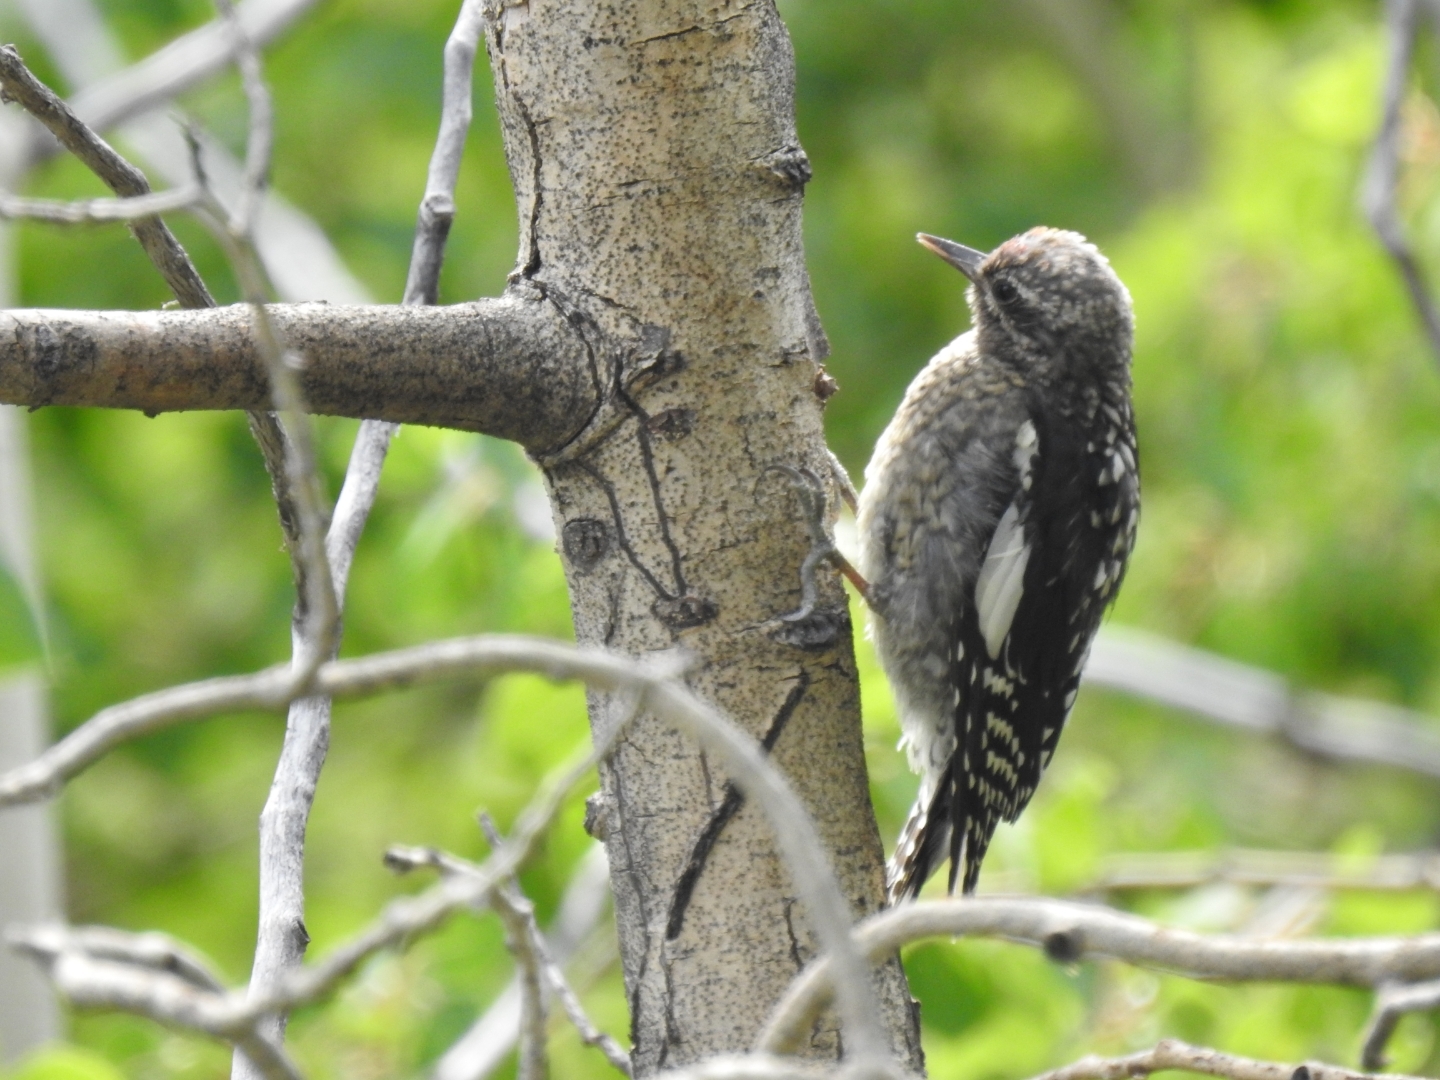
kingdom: Animalia
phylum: Chordata
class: Aves
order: Piciformes
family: Picidae
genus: Sphyrapicus
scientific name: Sphyrapicus nuchalis
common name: Red-naped sapsucker
